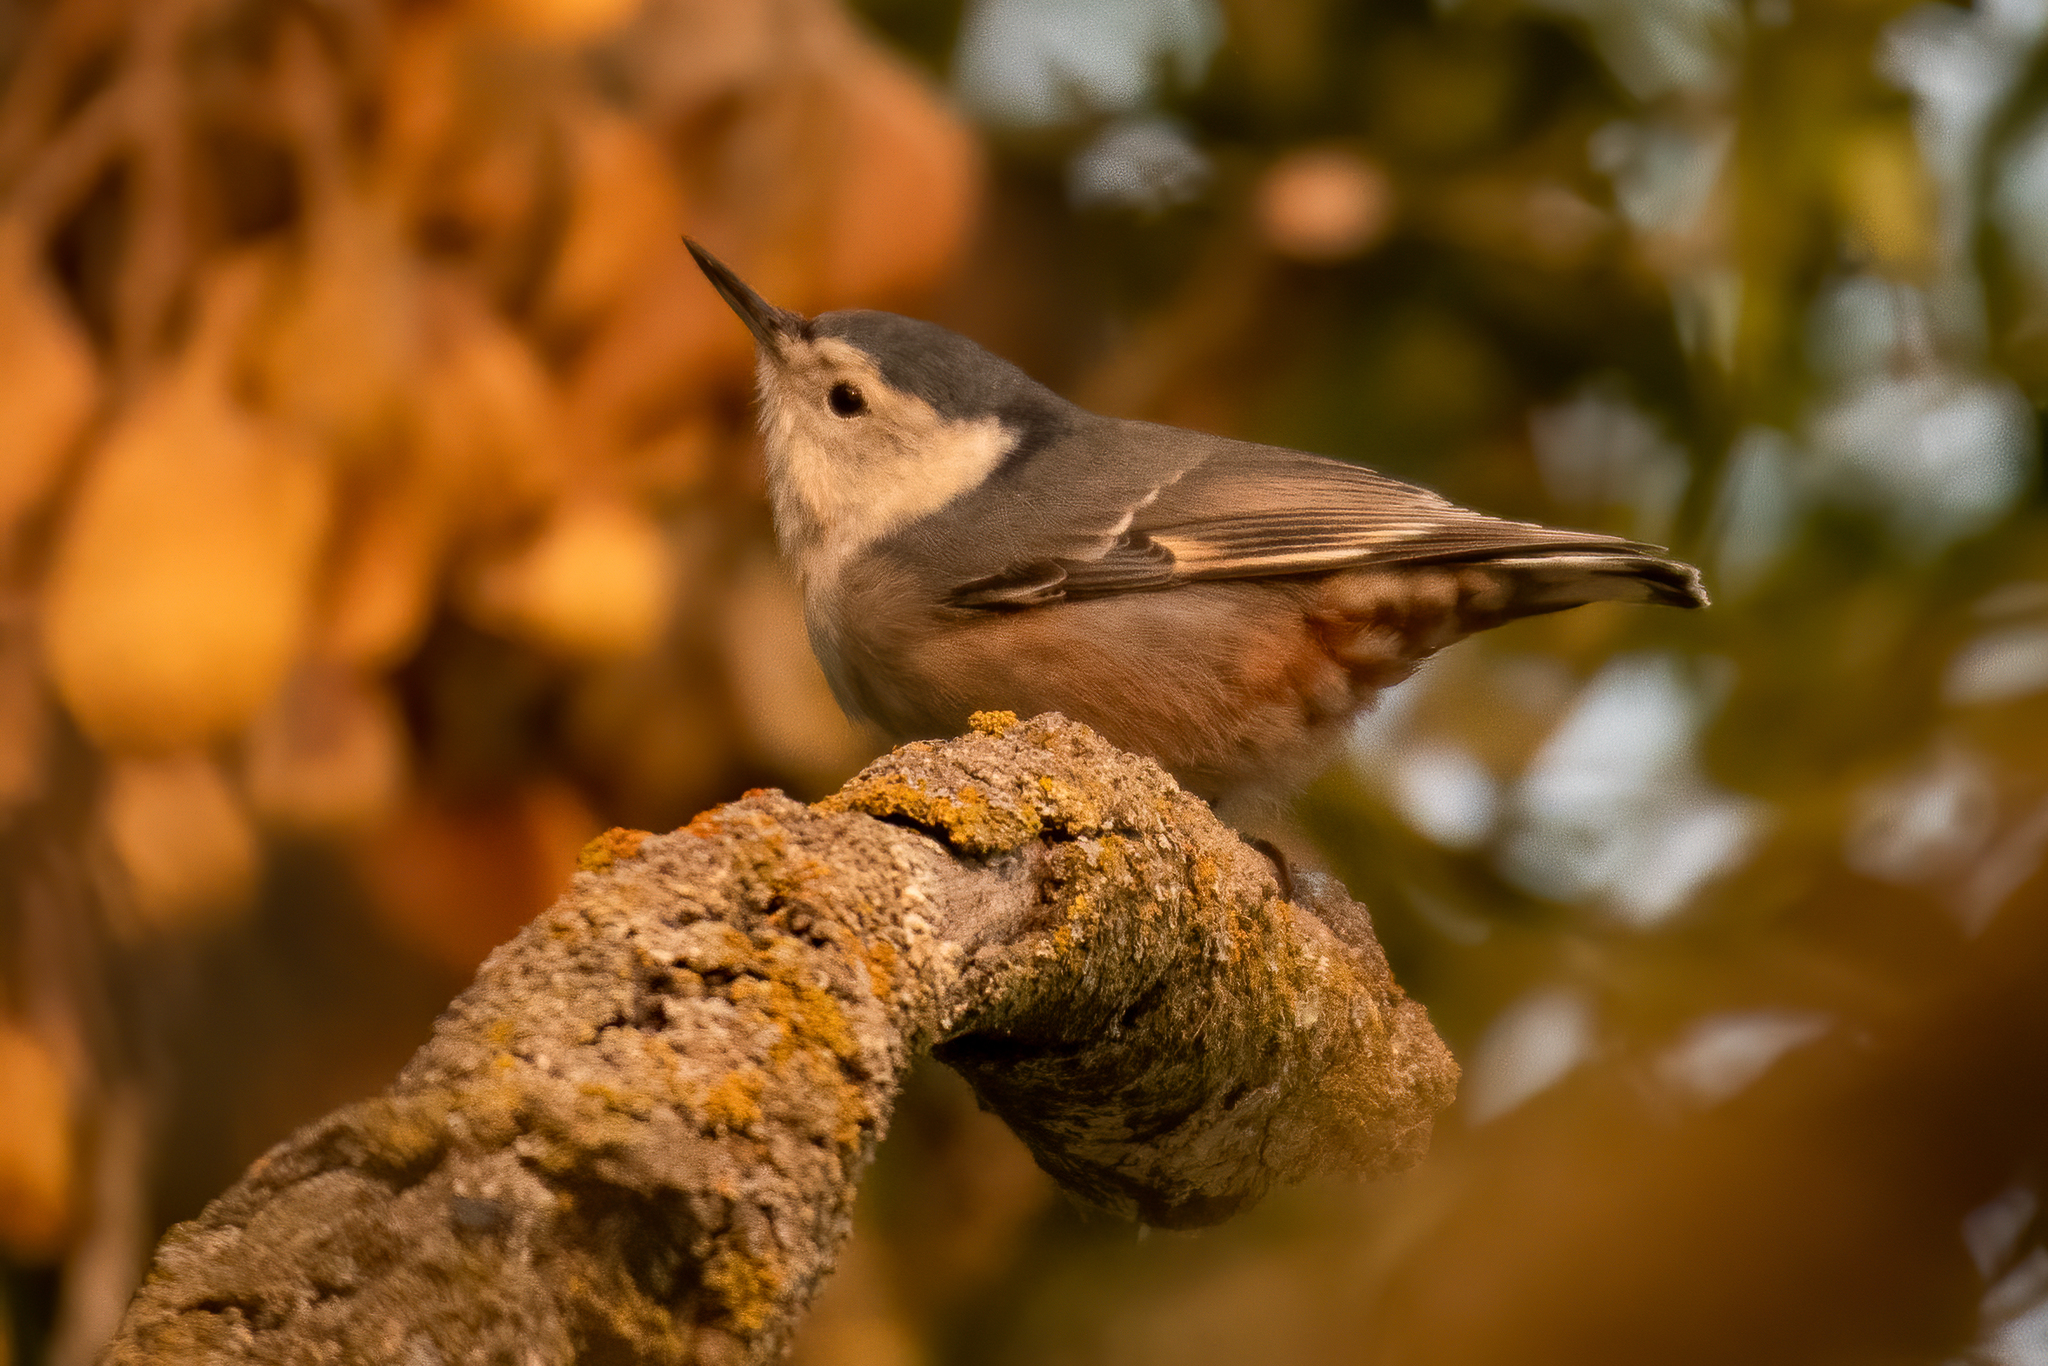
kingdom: Animalia
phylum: Chordata
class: Aves
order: Passeriformes
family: Sittidae
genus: Sitta
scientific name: Sitta carolinensis
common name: White-breasted nuthatch
